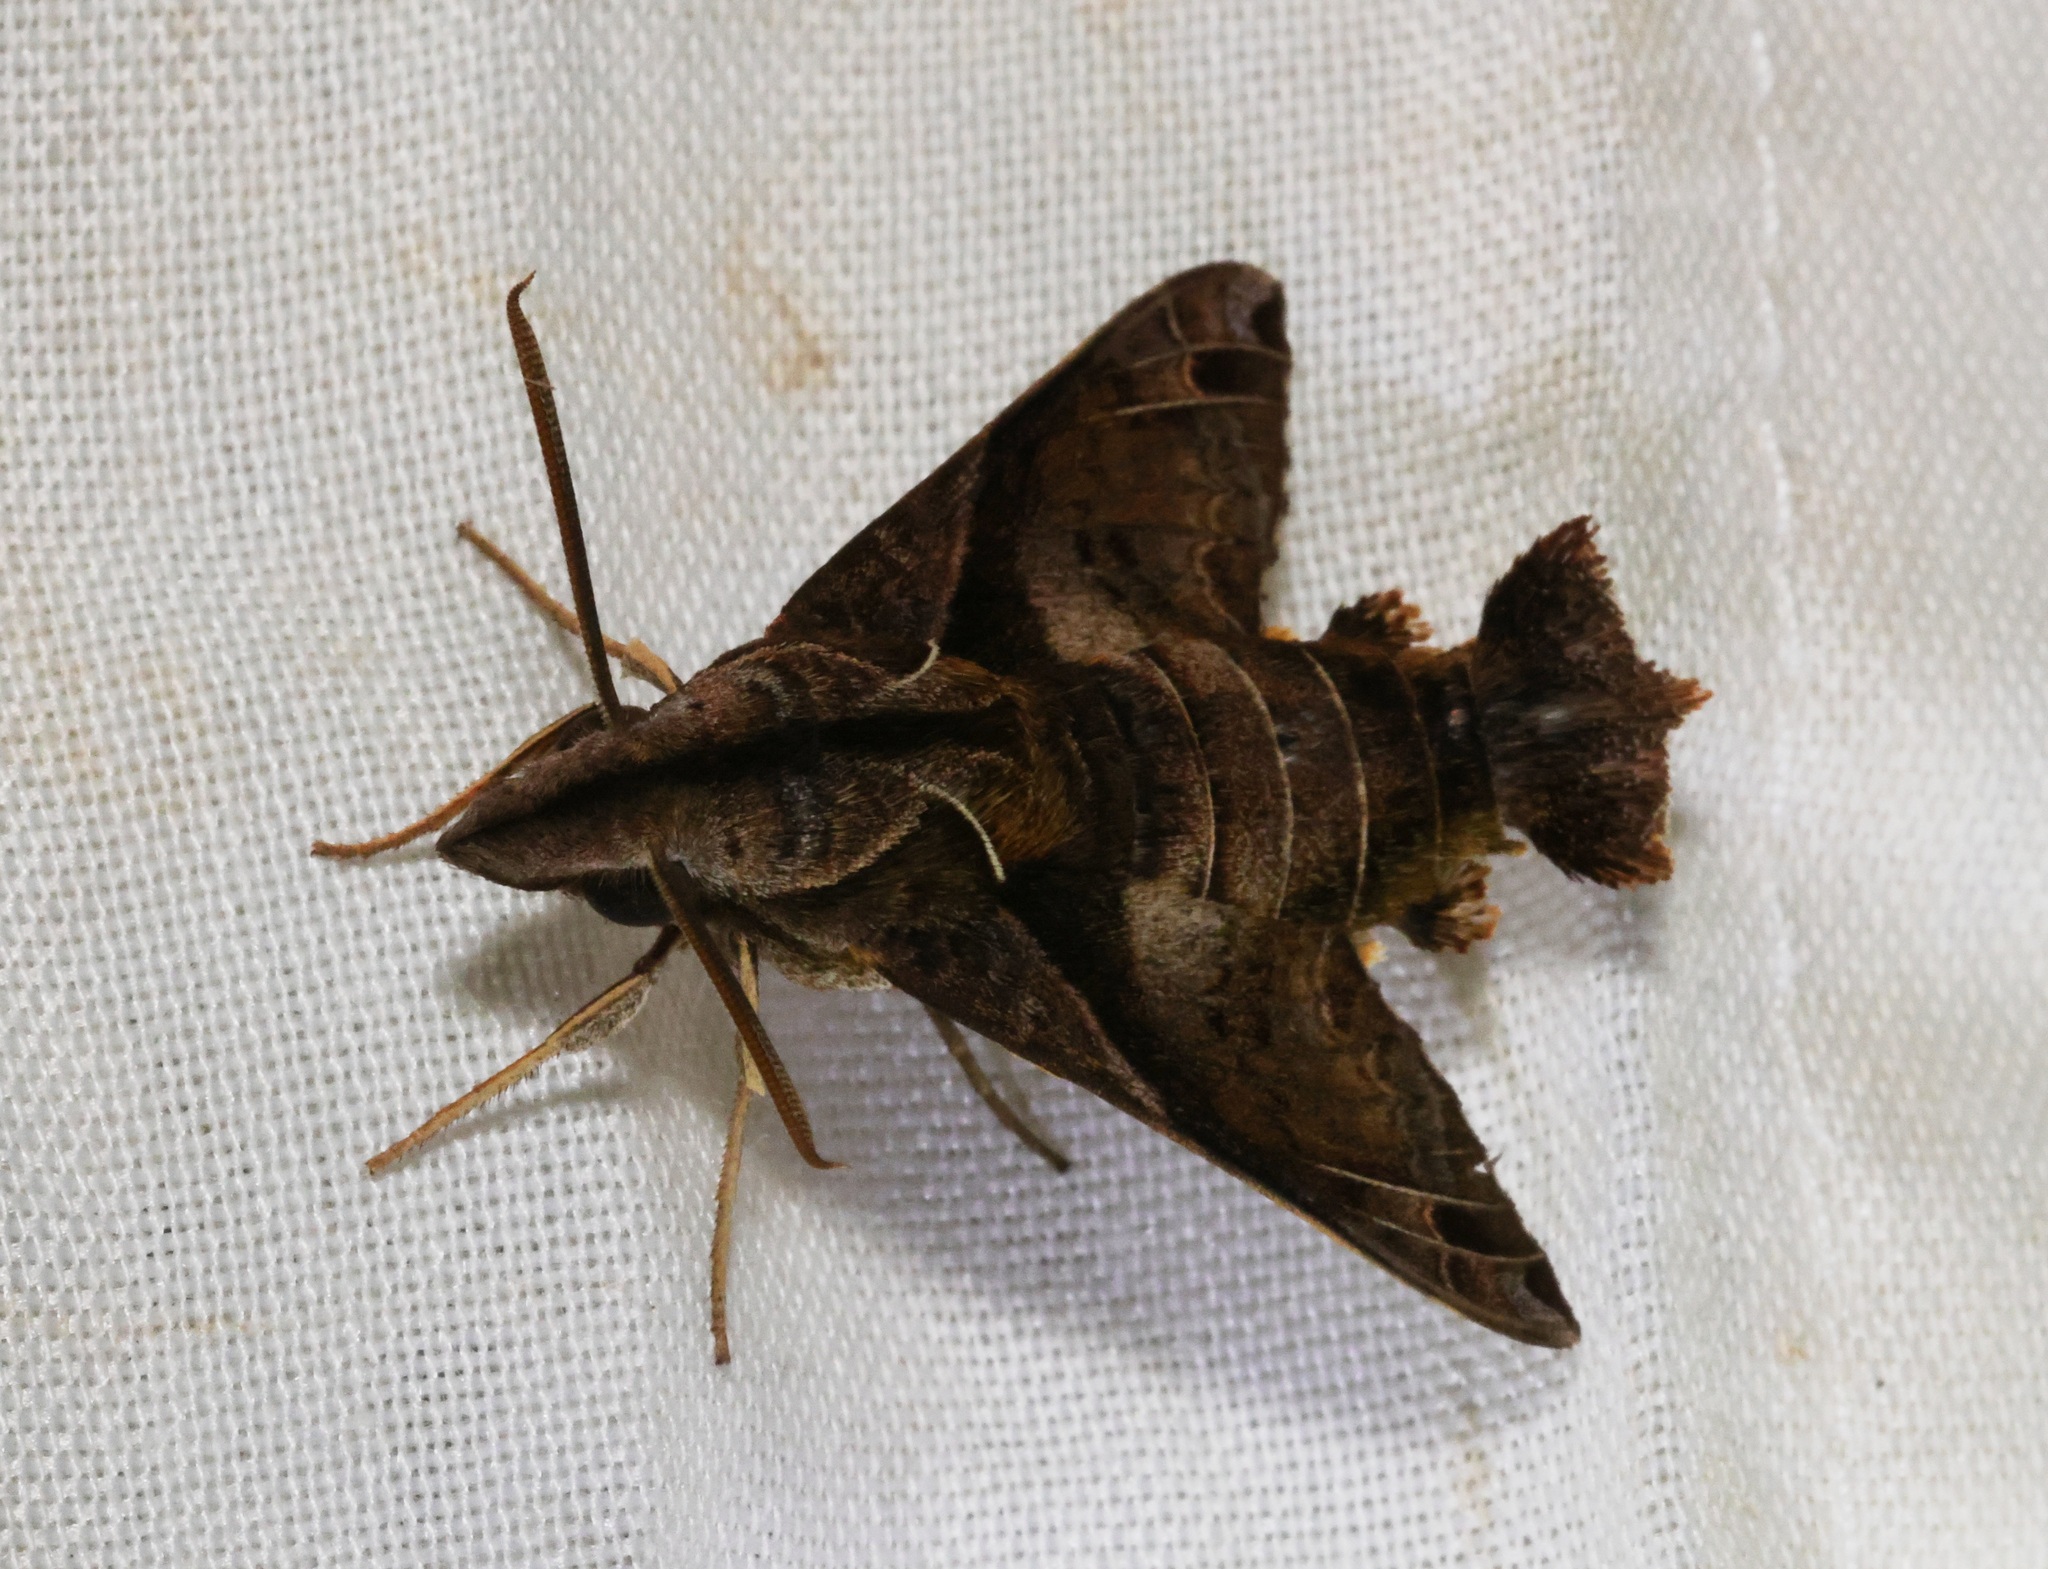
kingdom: Animalia
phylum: Arthropoda
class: Insecta
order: Lepidoptera
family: Sphingidae
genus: Macroglossum
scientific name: Macroglossum fritzei
